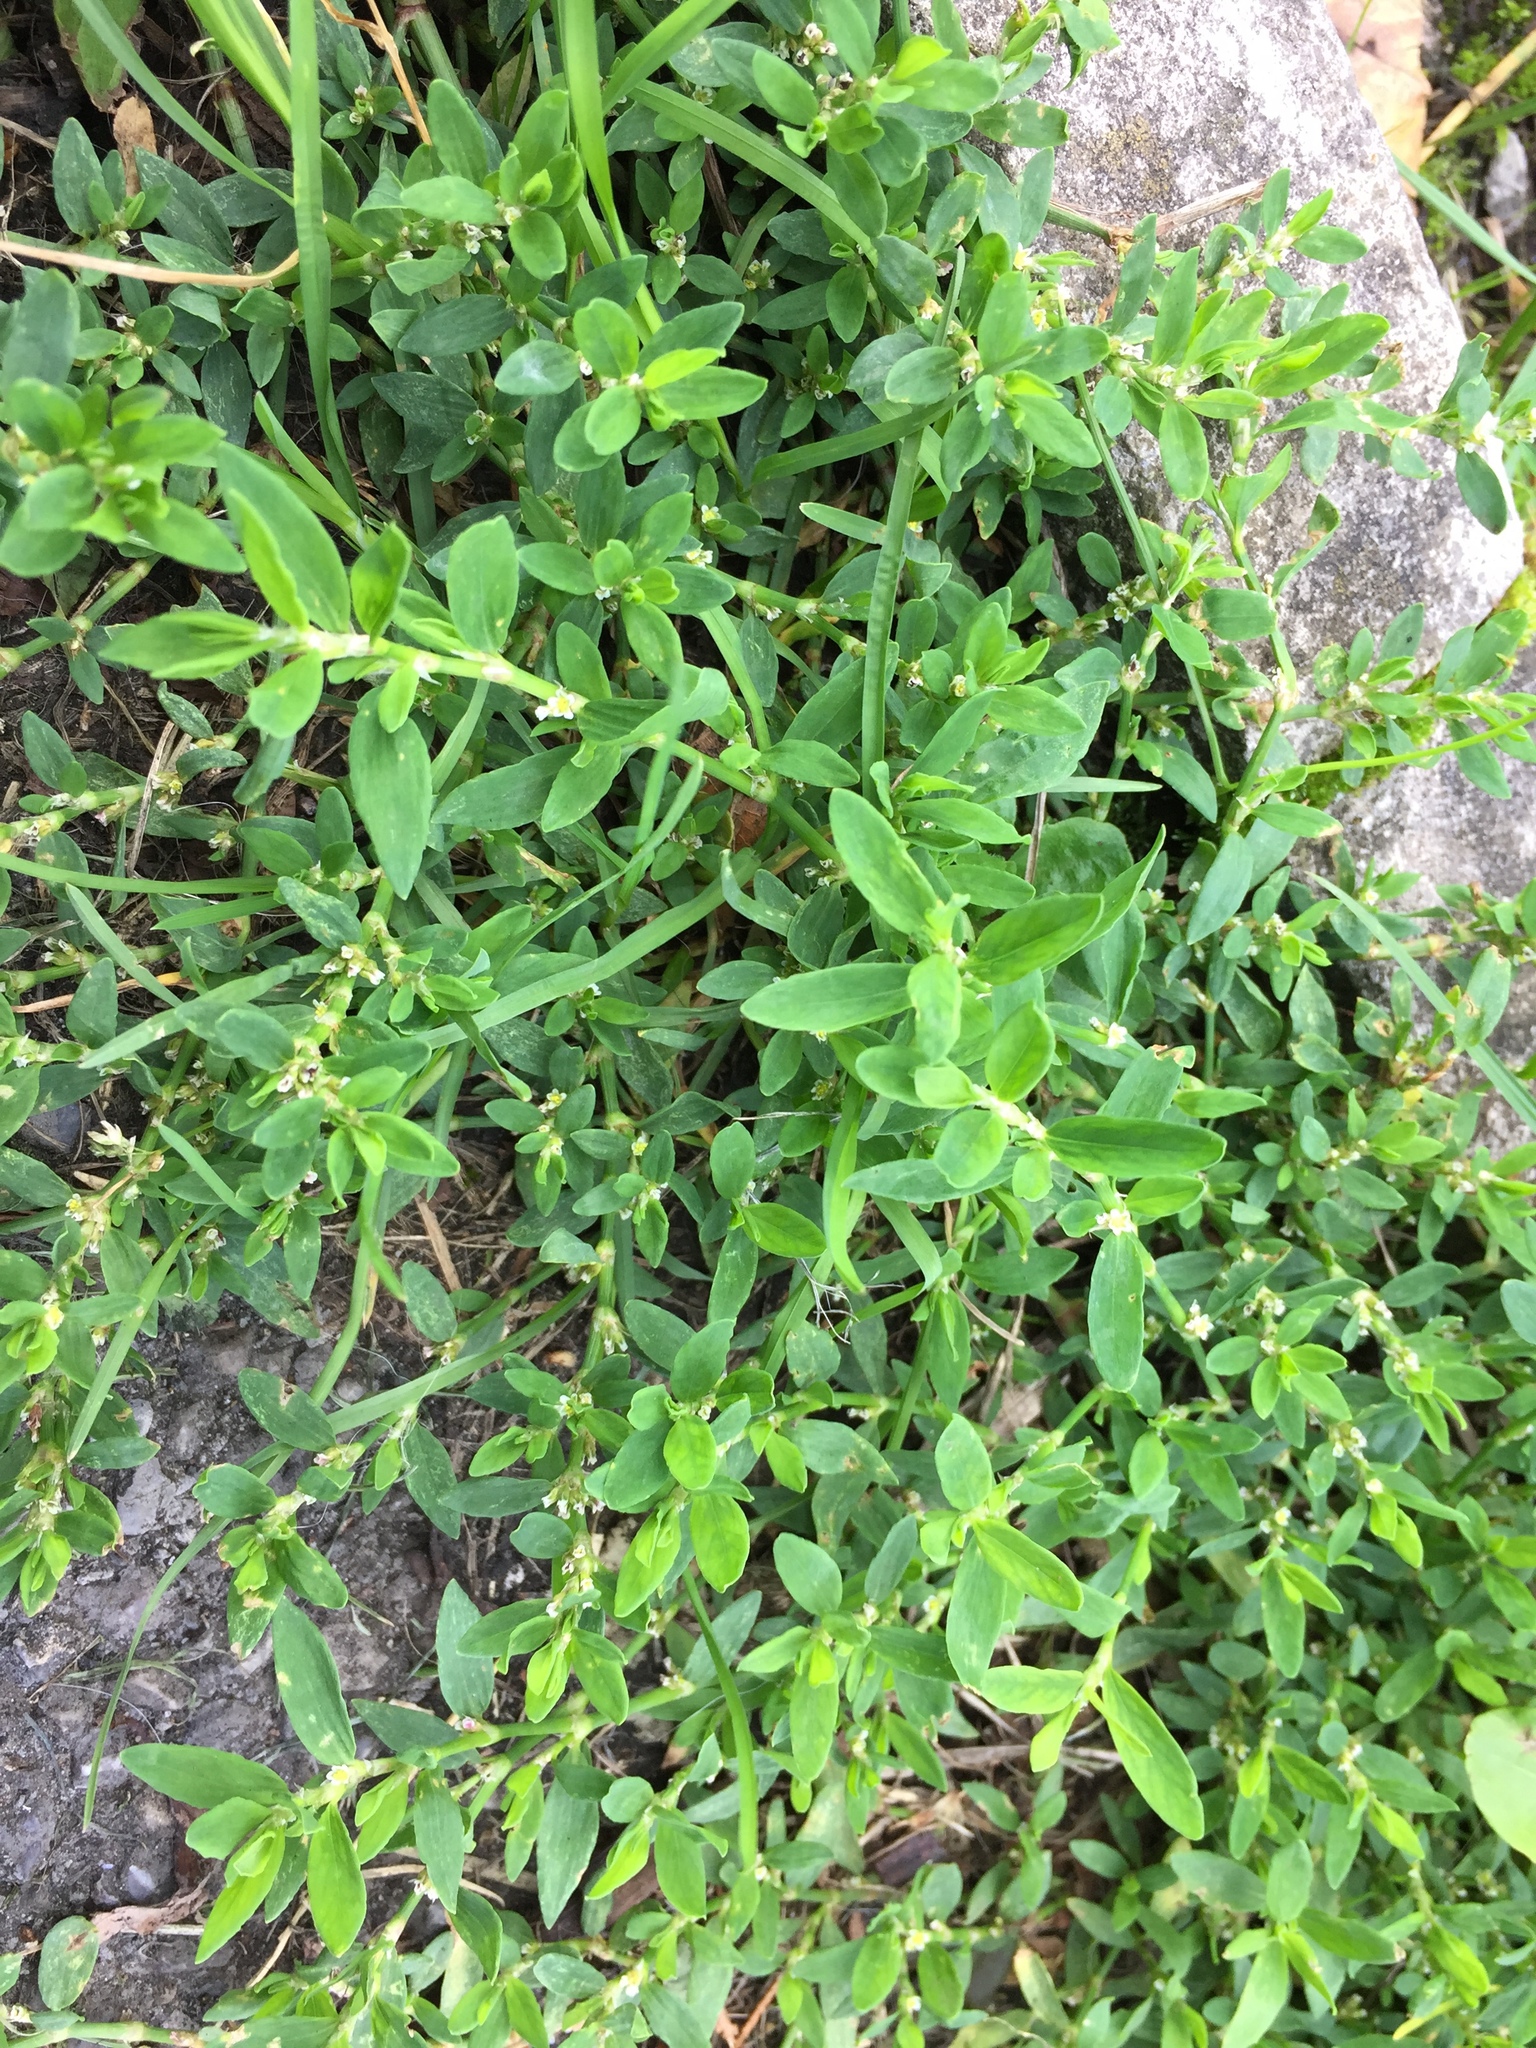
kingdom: Plantae
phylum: Tracheophyta
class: Magnoliopsida
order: Caryophyllales
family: Polygonaceae
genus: Polygonum
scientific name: Polygonum aviculare
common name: Prostrate knotweed
